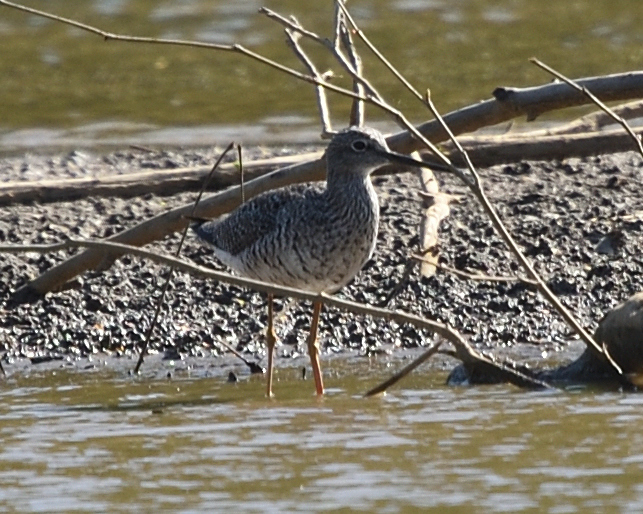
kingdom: Animalia
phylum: Chordata
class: Aves
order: Charadriiformes
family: Scolopacidae
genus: Tringa
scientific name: Tringa melanoleuca
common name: Greater yellowlegs
